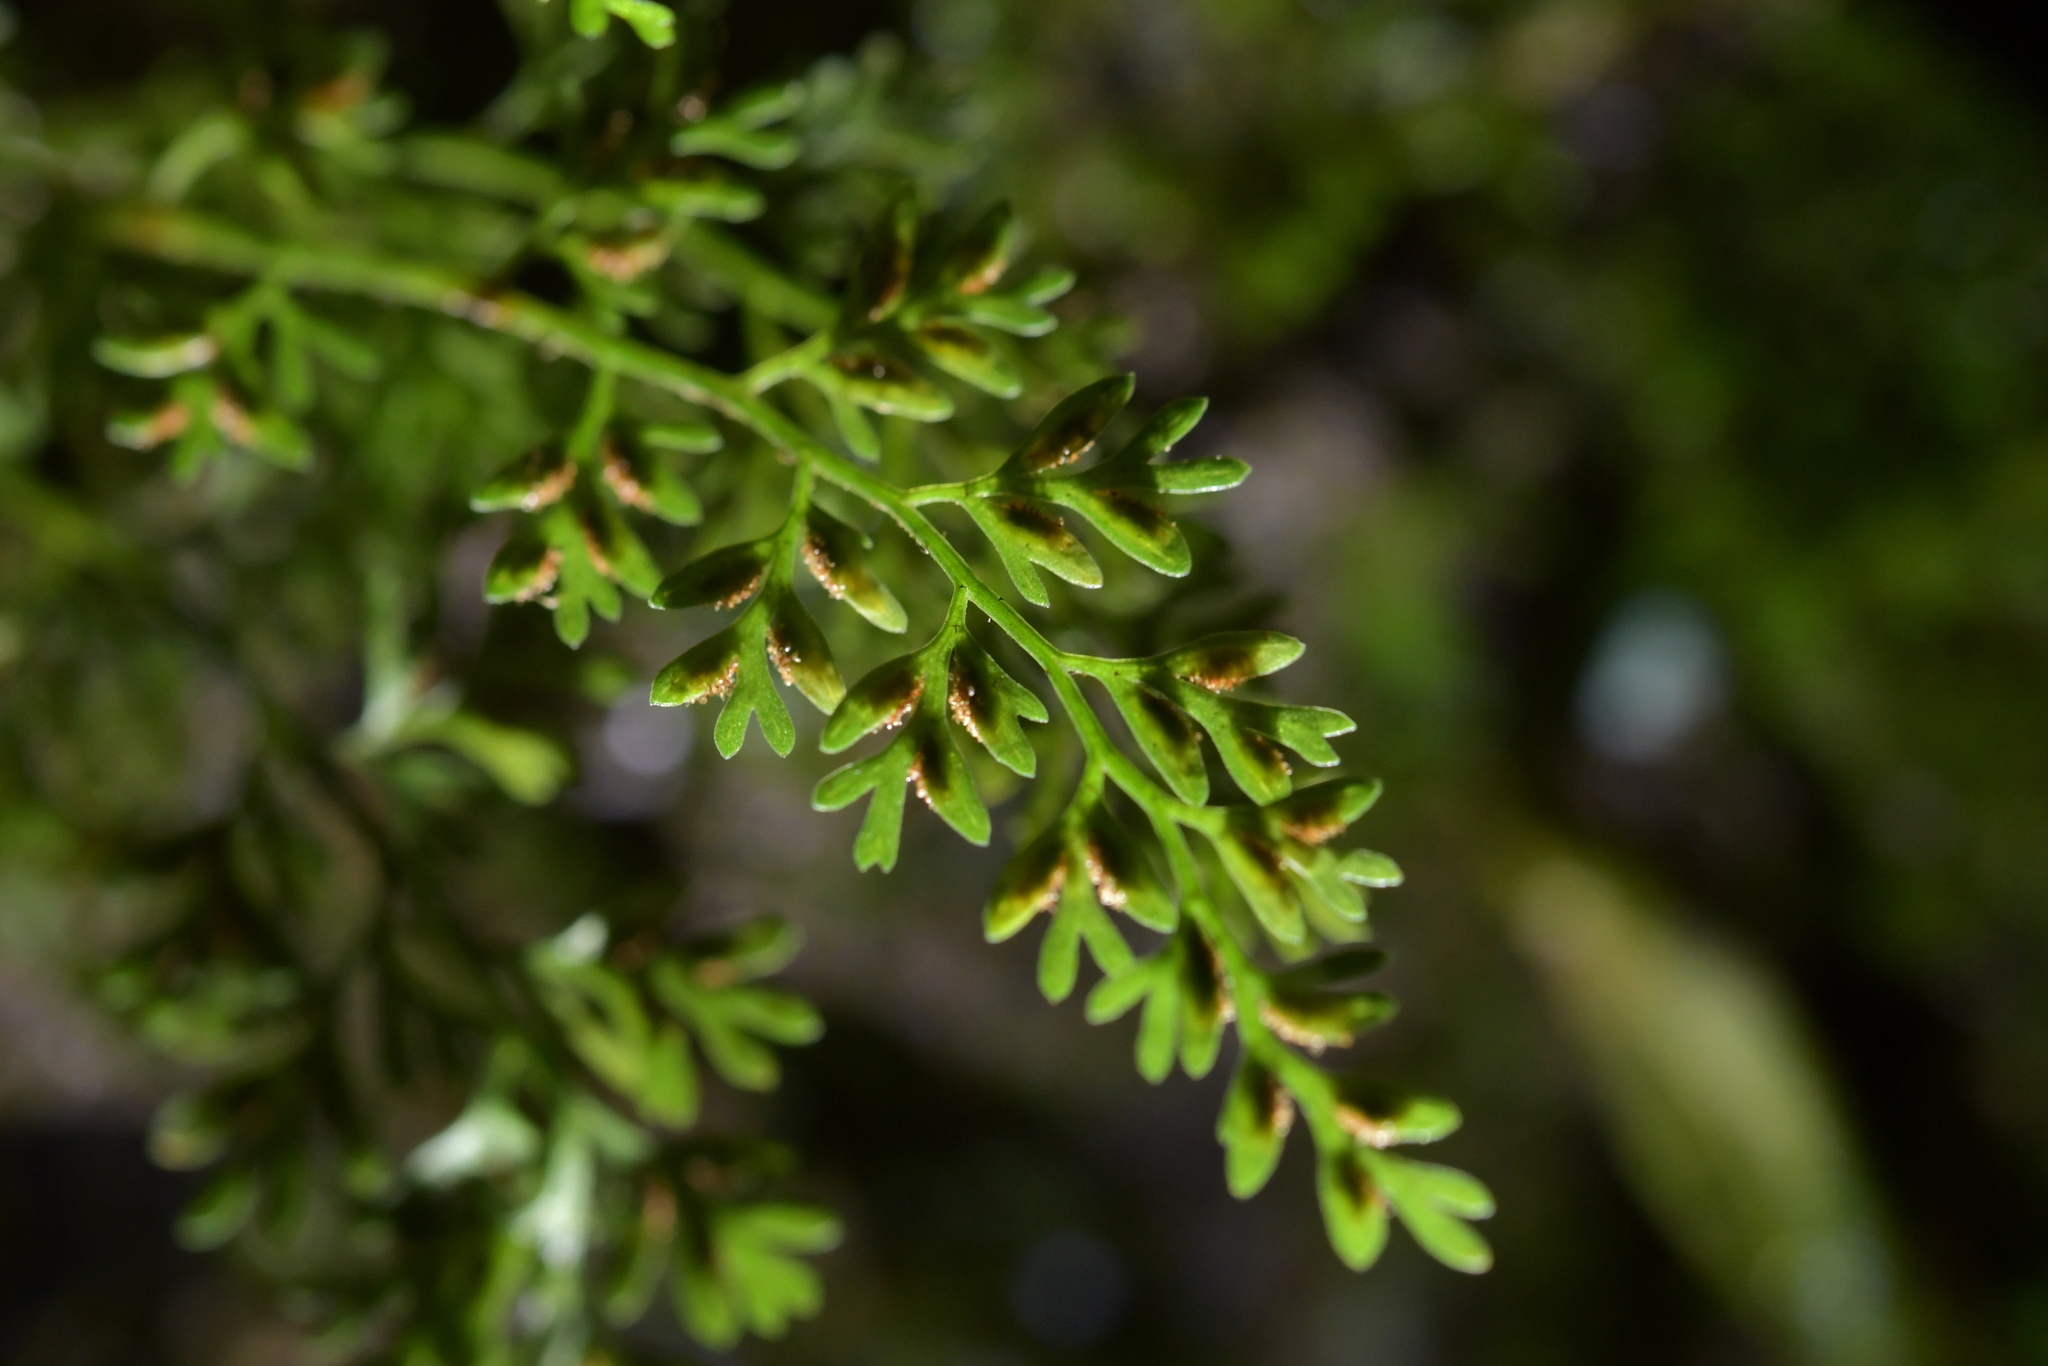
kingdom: Plantae
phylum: Tracheophyta
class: Polypodiopsida
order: Polypodiales
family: Aspleniaceae
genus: Asplenium
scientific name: Asplenium hookerianum
